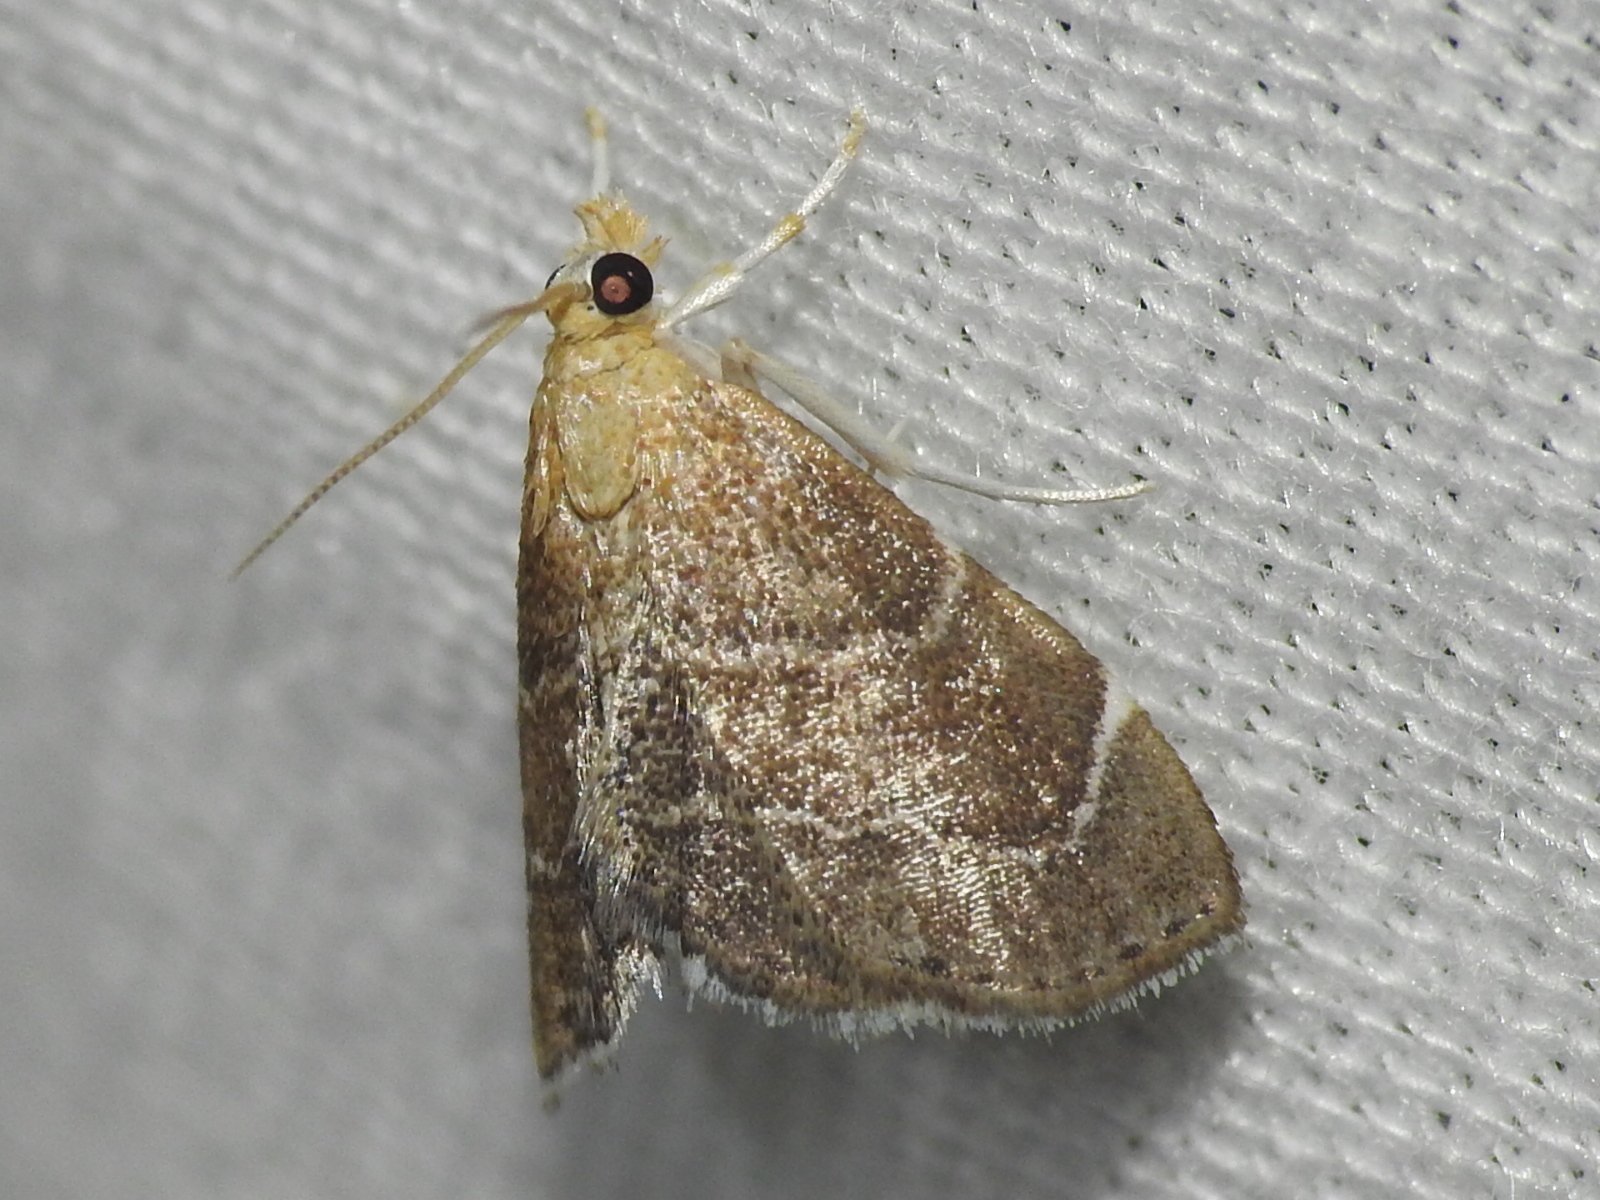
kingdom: Animalia
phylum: Arthropoda
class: Insecta
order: Lepidoptera
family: Crambidae
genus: Stegea
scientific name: Stegea eripalis
